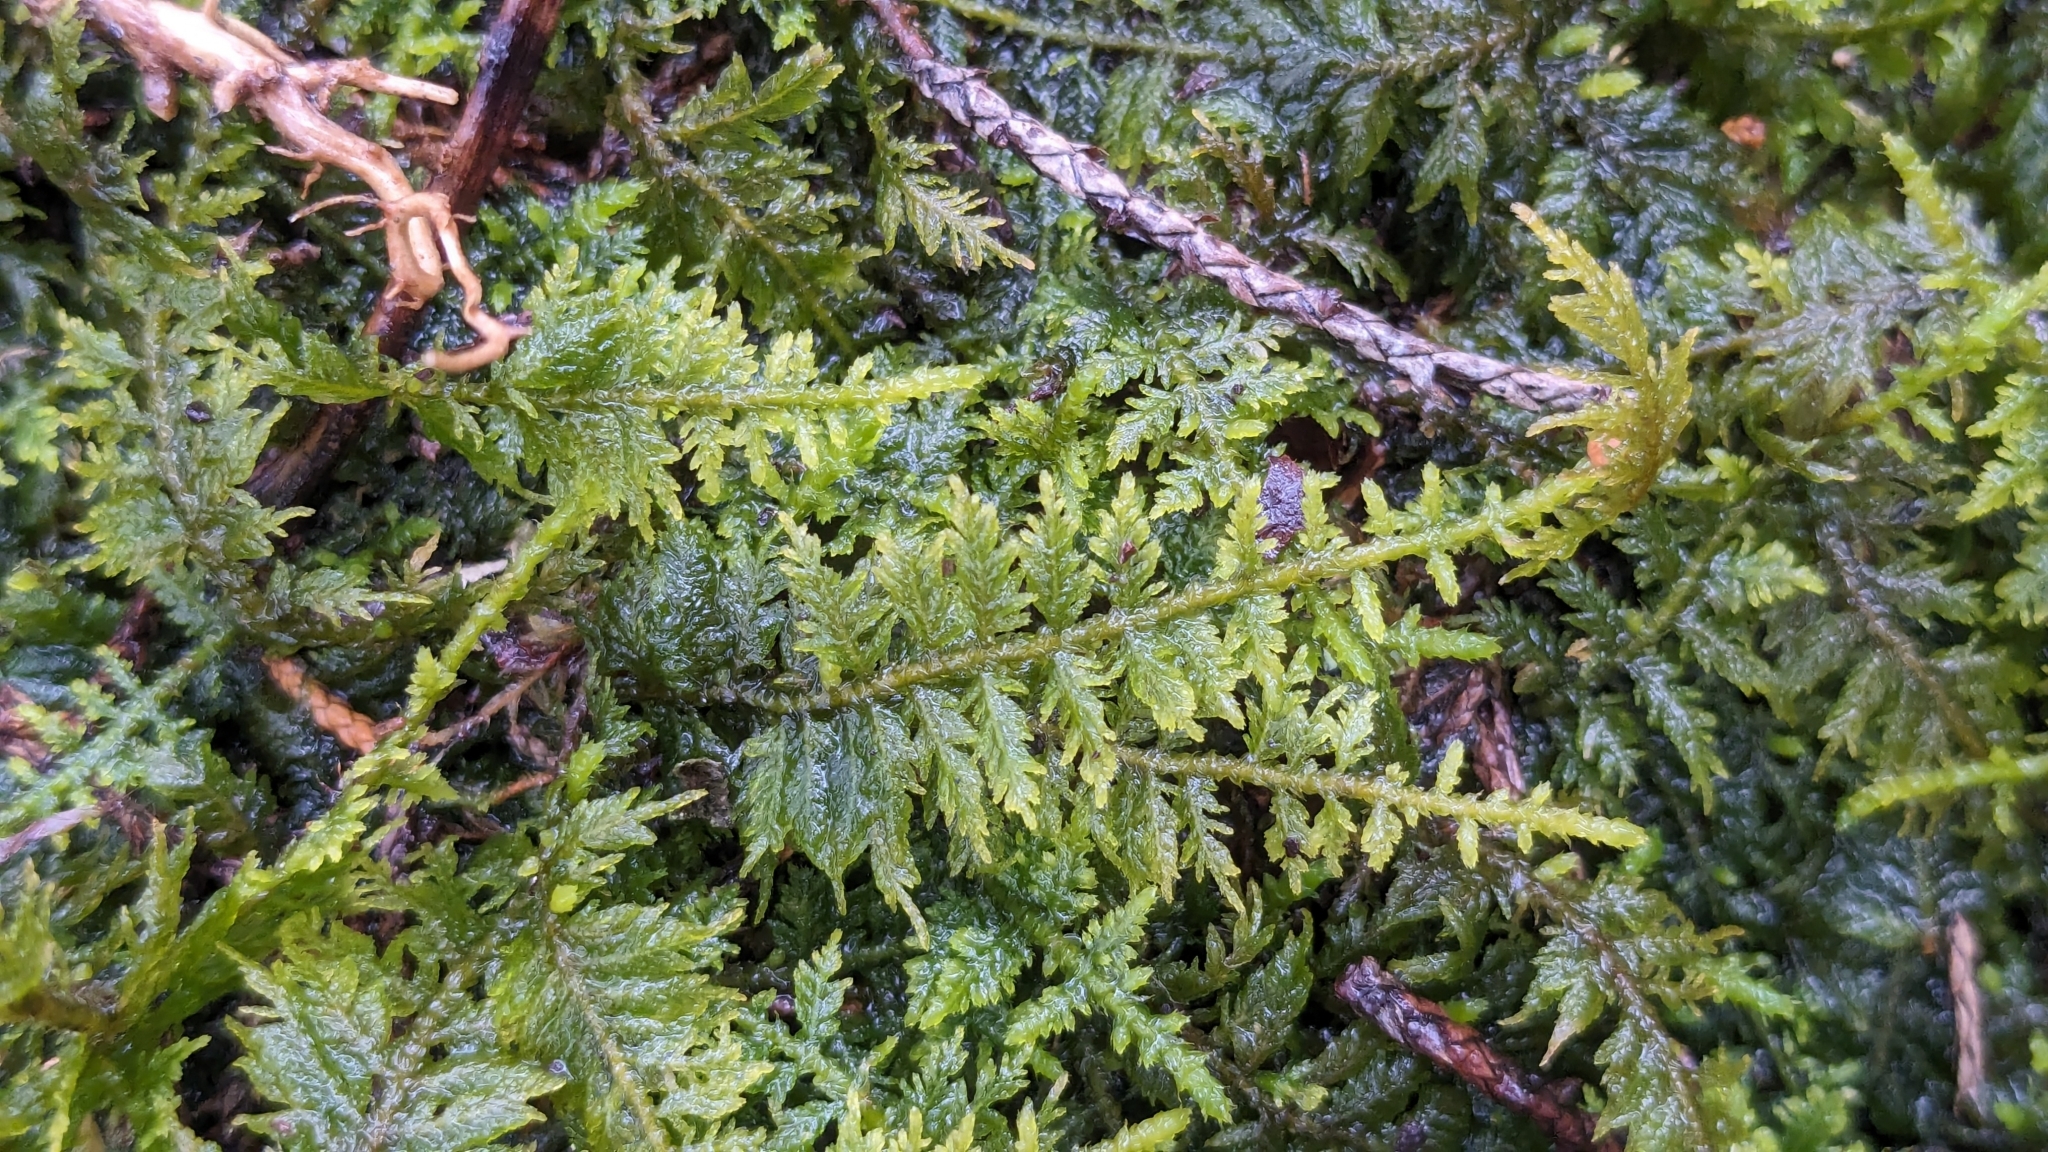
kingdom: Plantae
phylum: Bryophyta
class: Bryopsida
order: Hypnales
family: Thuidiaceae
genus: Thuidium
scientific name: Thuidium delicatulum
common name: Delicate fern moss
